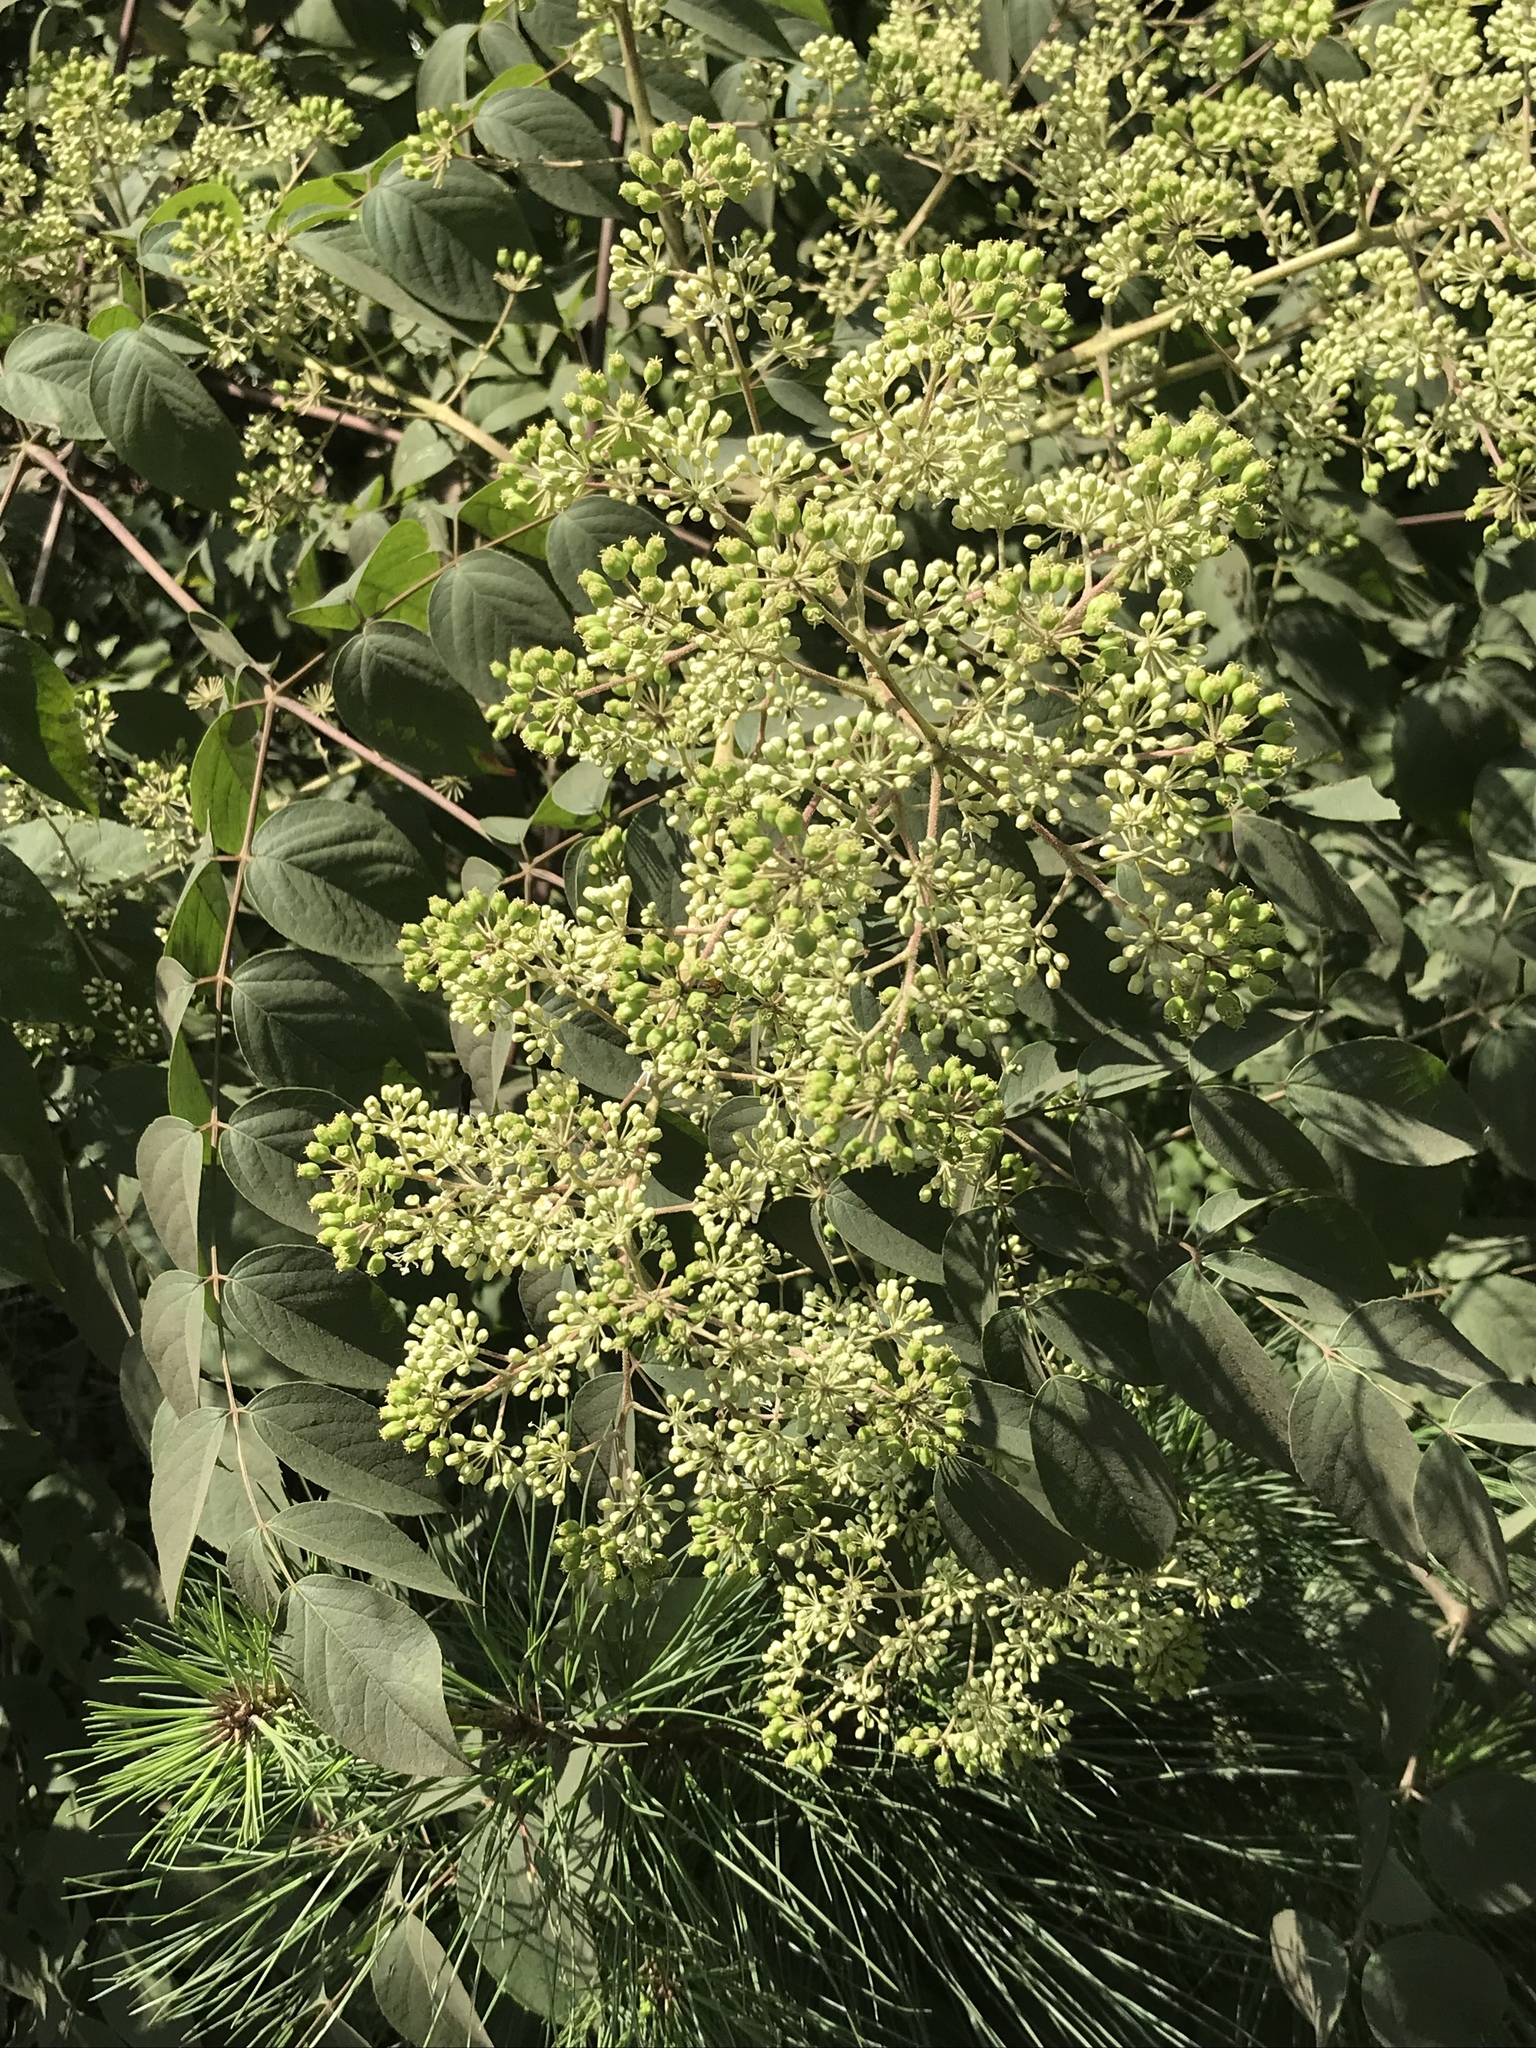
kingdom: Plantae
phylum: Tracheophyta
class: Magnoliopsida
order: Apiales
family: Araliaceae
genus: Aralia
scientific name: Aralia spinosa
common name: Hercules'-club
